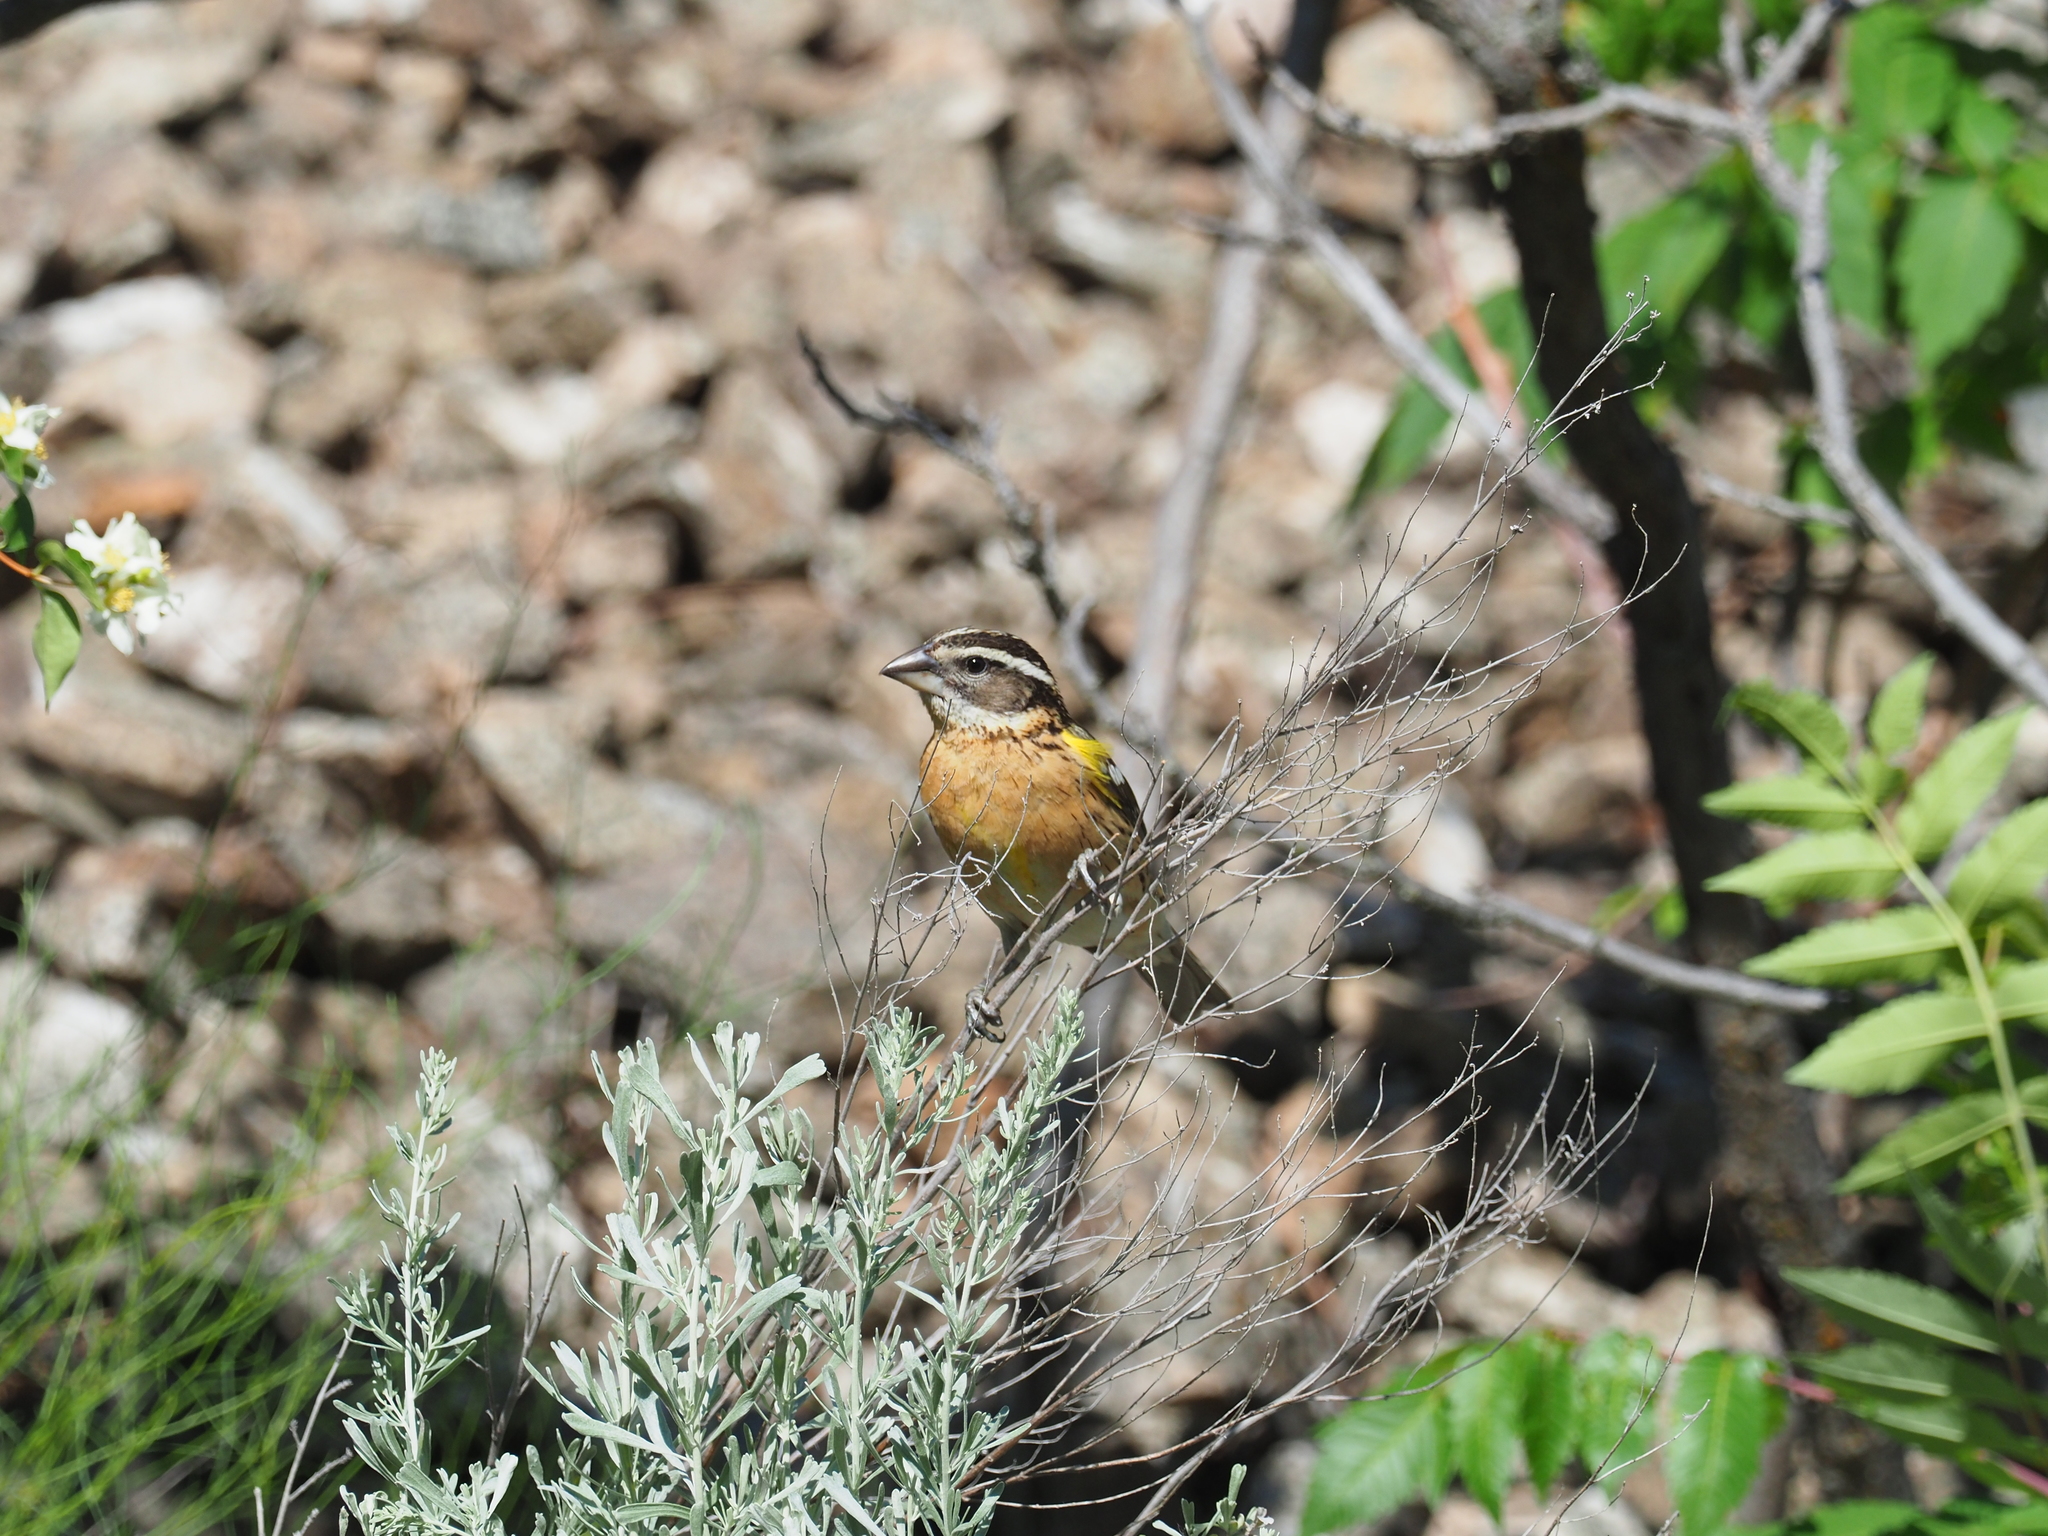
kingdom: Animalia
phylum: Chordata
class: Aves
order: Passeriformes
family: Cardinalidae
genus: Pheucticus
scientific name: Pheucticus melanocephalus
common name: Black-headed grosbeak
